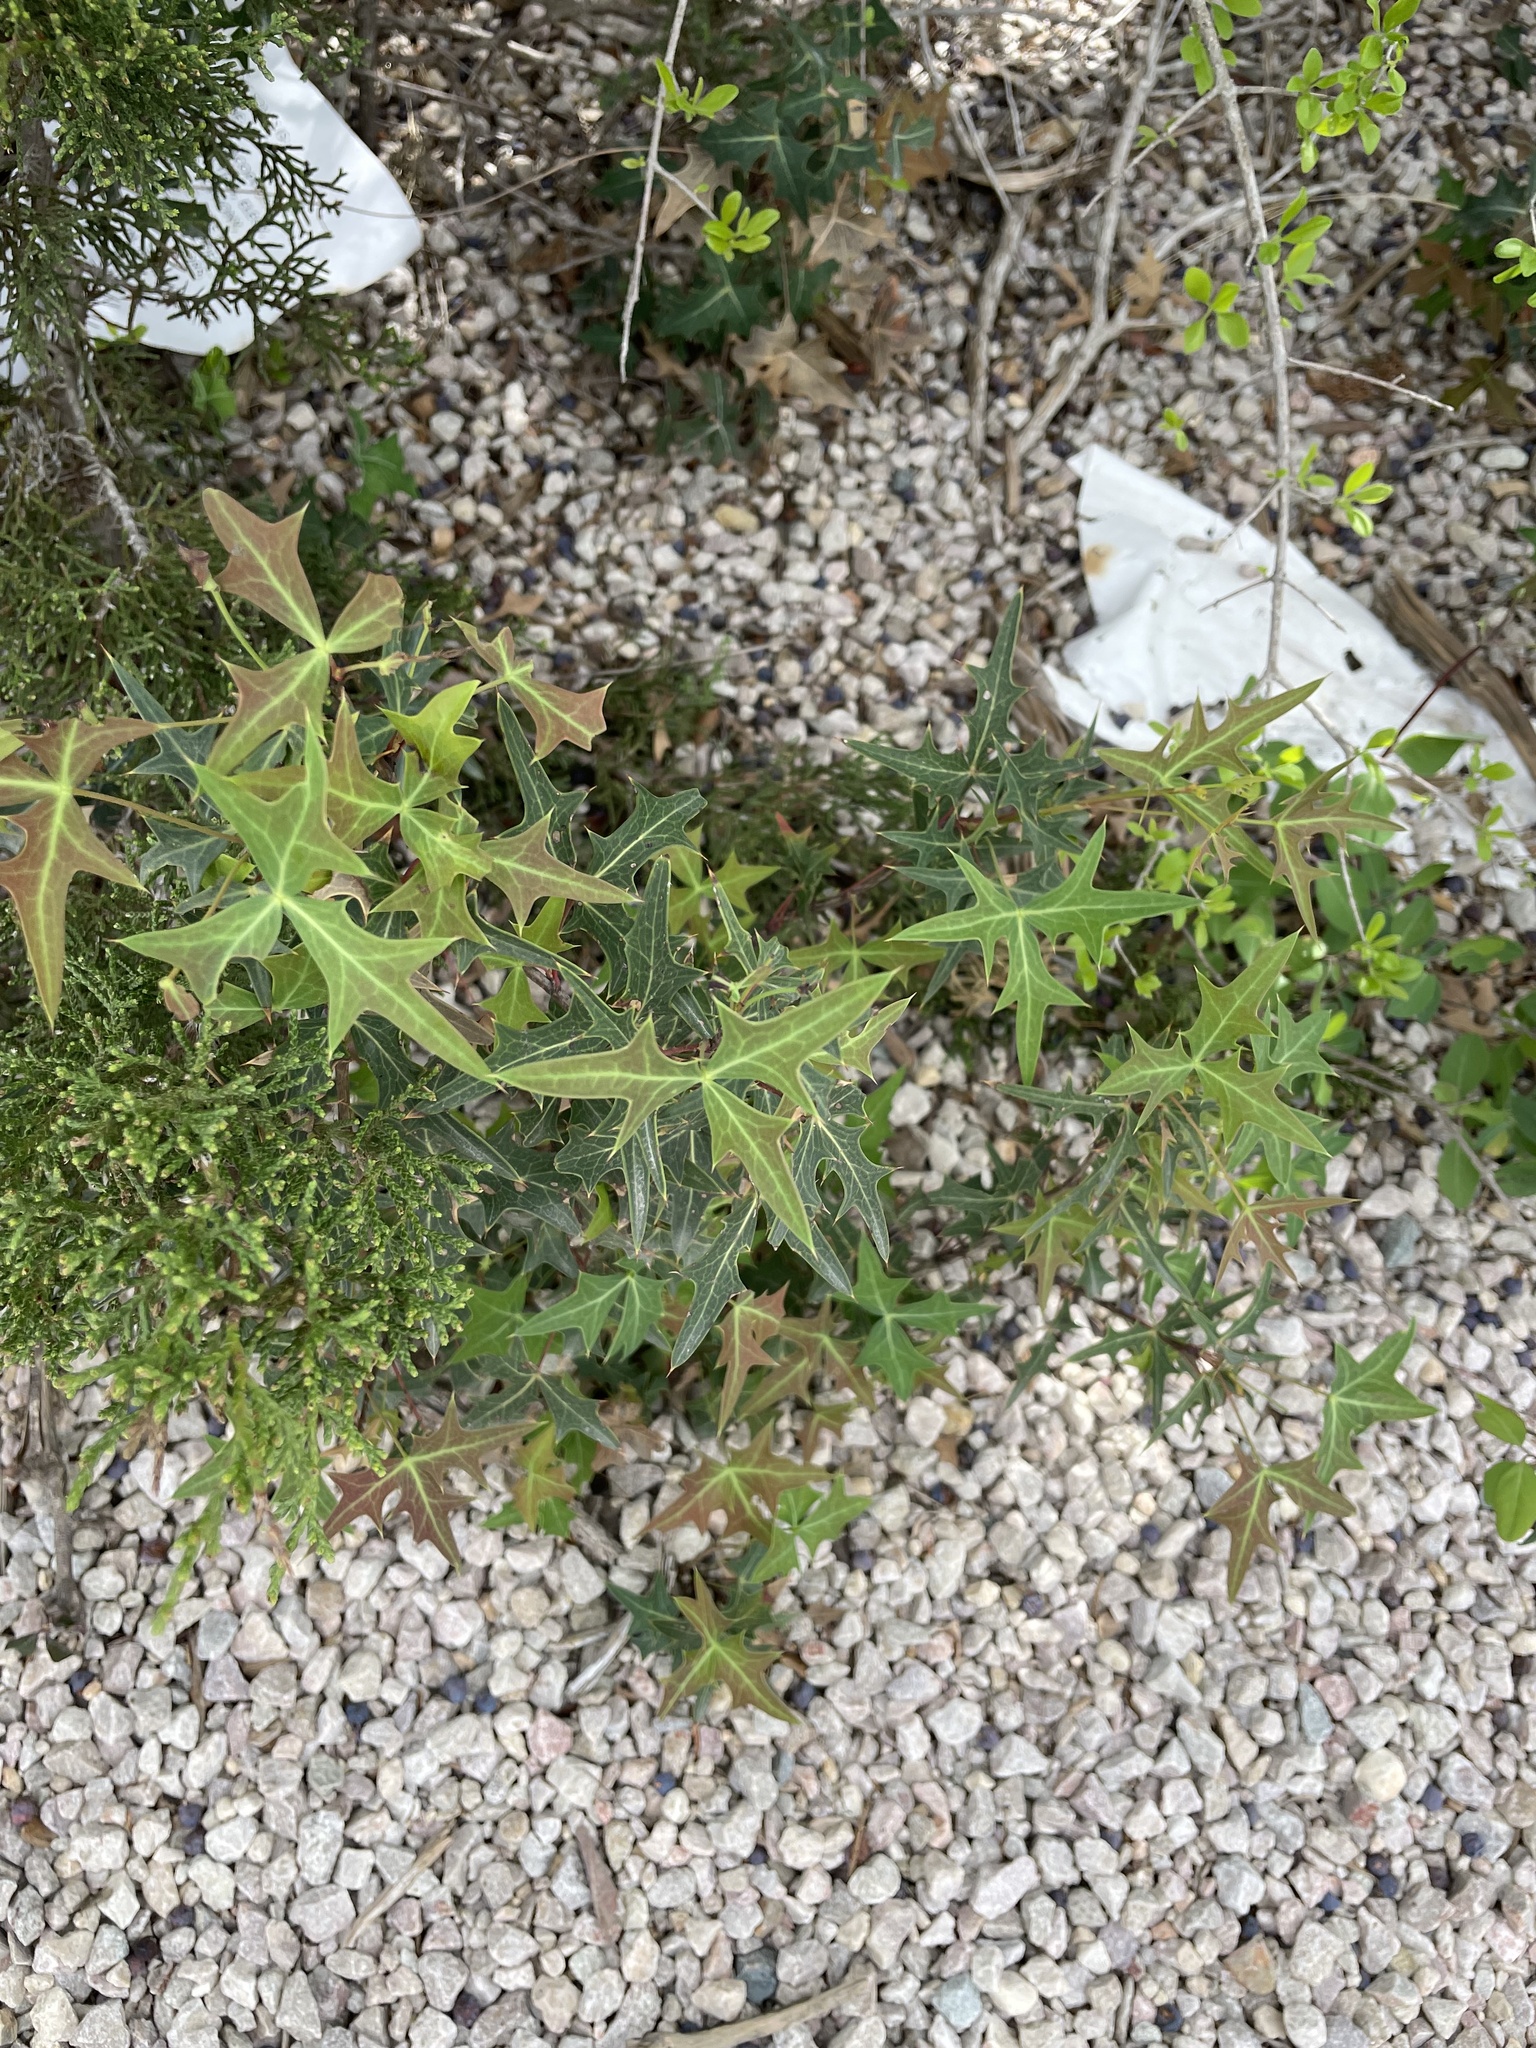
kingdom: Plantae
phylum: Tracheophyta
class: Magnoliopsida
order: Ranunculales
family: Berberidaceae
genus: Alloberberis
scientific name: Alloberberis trifoliolata
